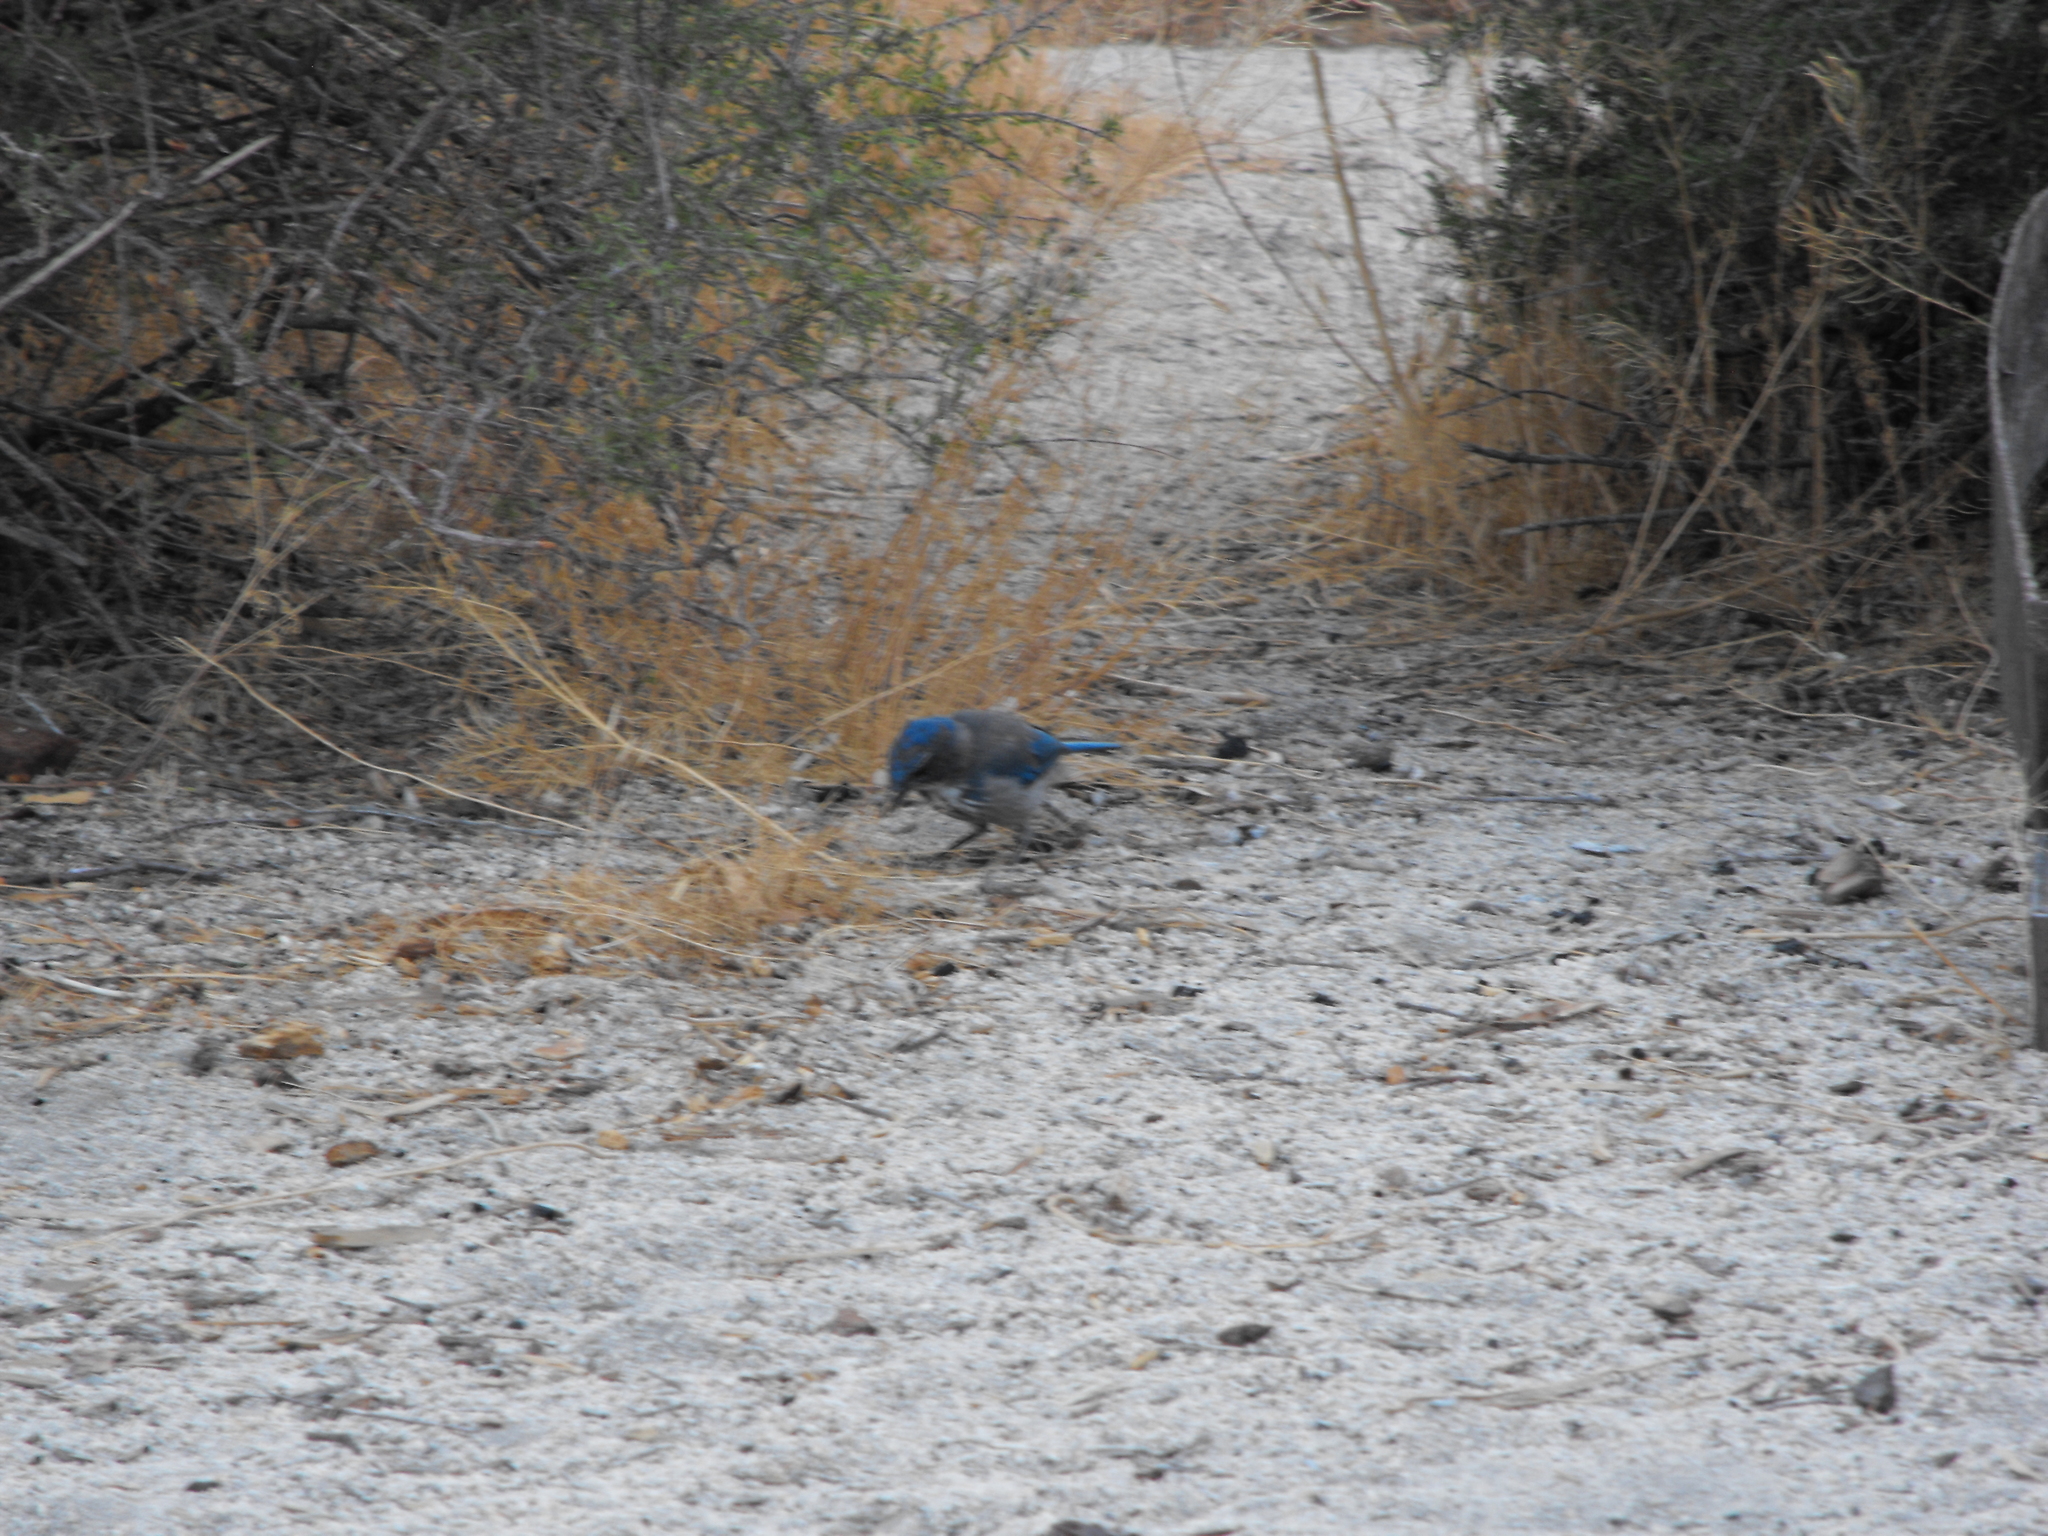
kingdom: Animalia
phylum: Chordata
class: Aves
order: Passeriformes
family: Corvidae
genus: Aphelocoma
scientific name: Aphelocoma californica
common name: California scrub-jay
